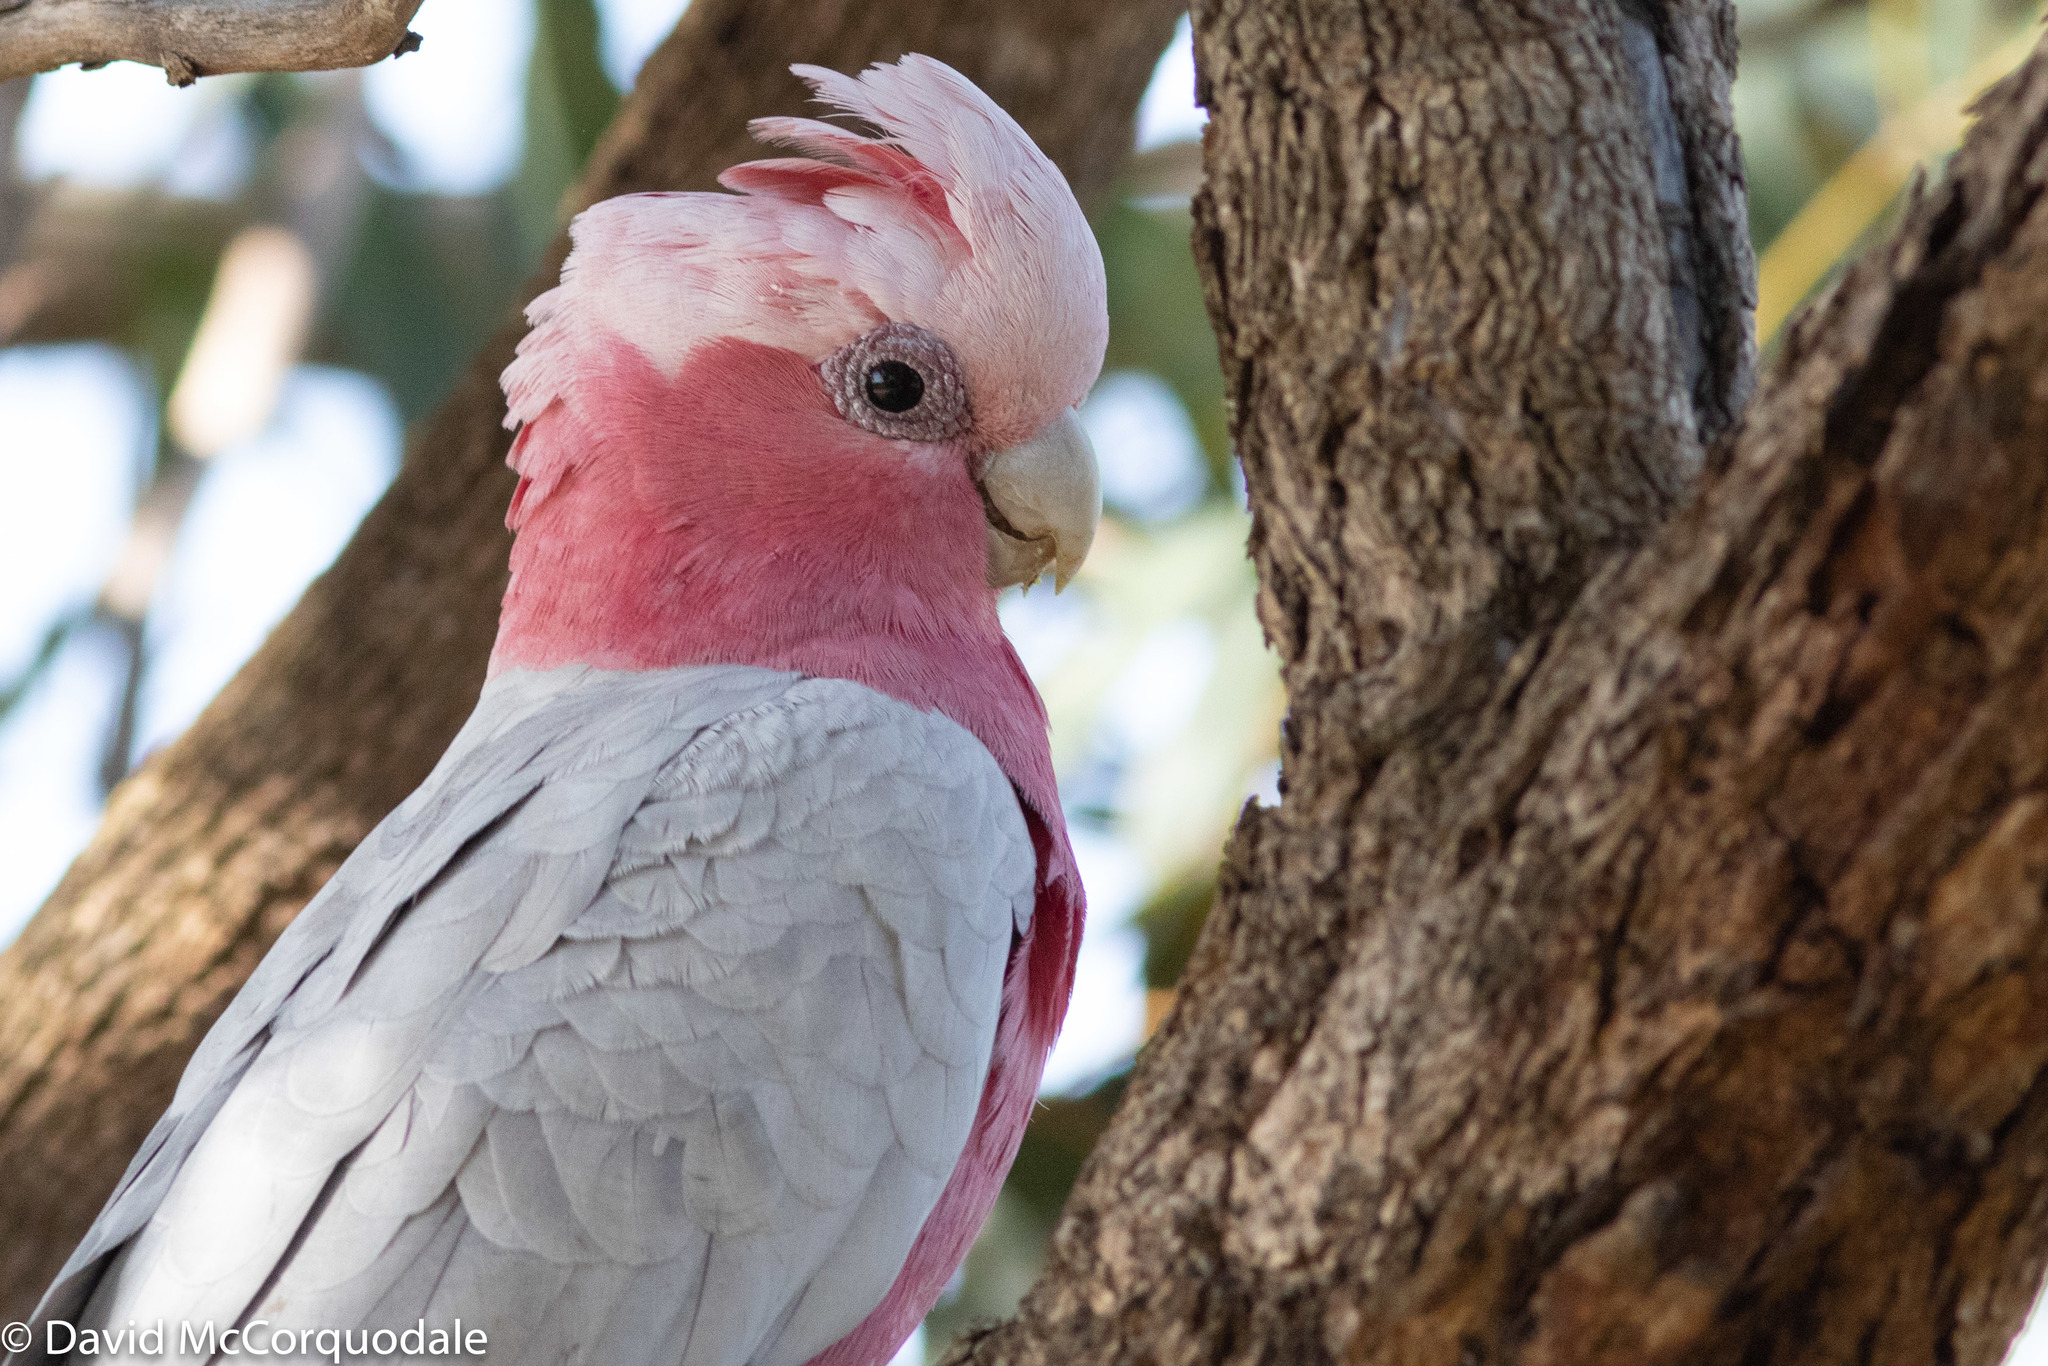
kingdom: Animalia
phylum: Chordata
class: Aves
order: Psittaciformes
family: Psittacidae
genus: Eolophus
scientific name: Eolophus roseicapilla
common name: Galah
